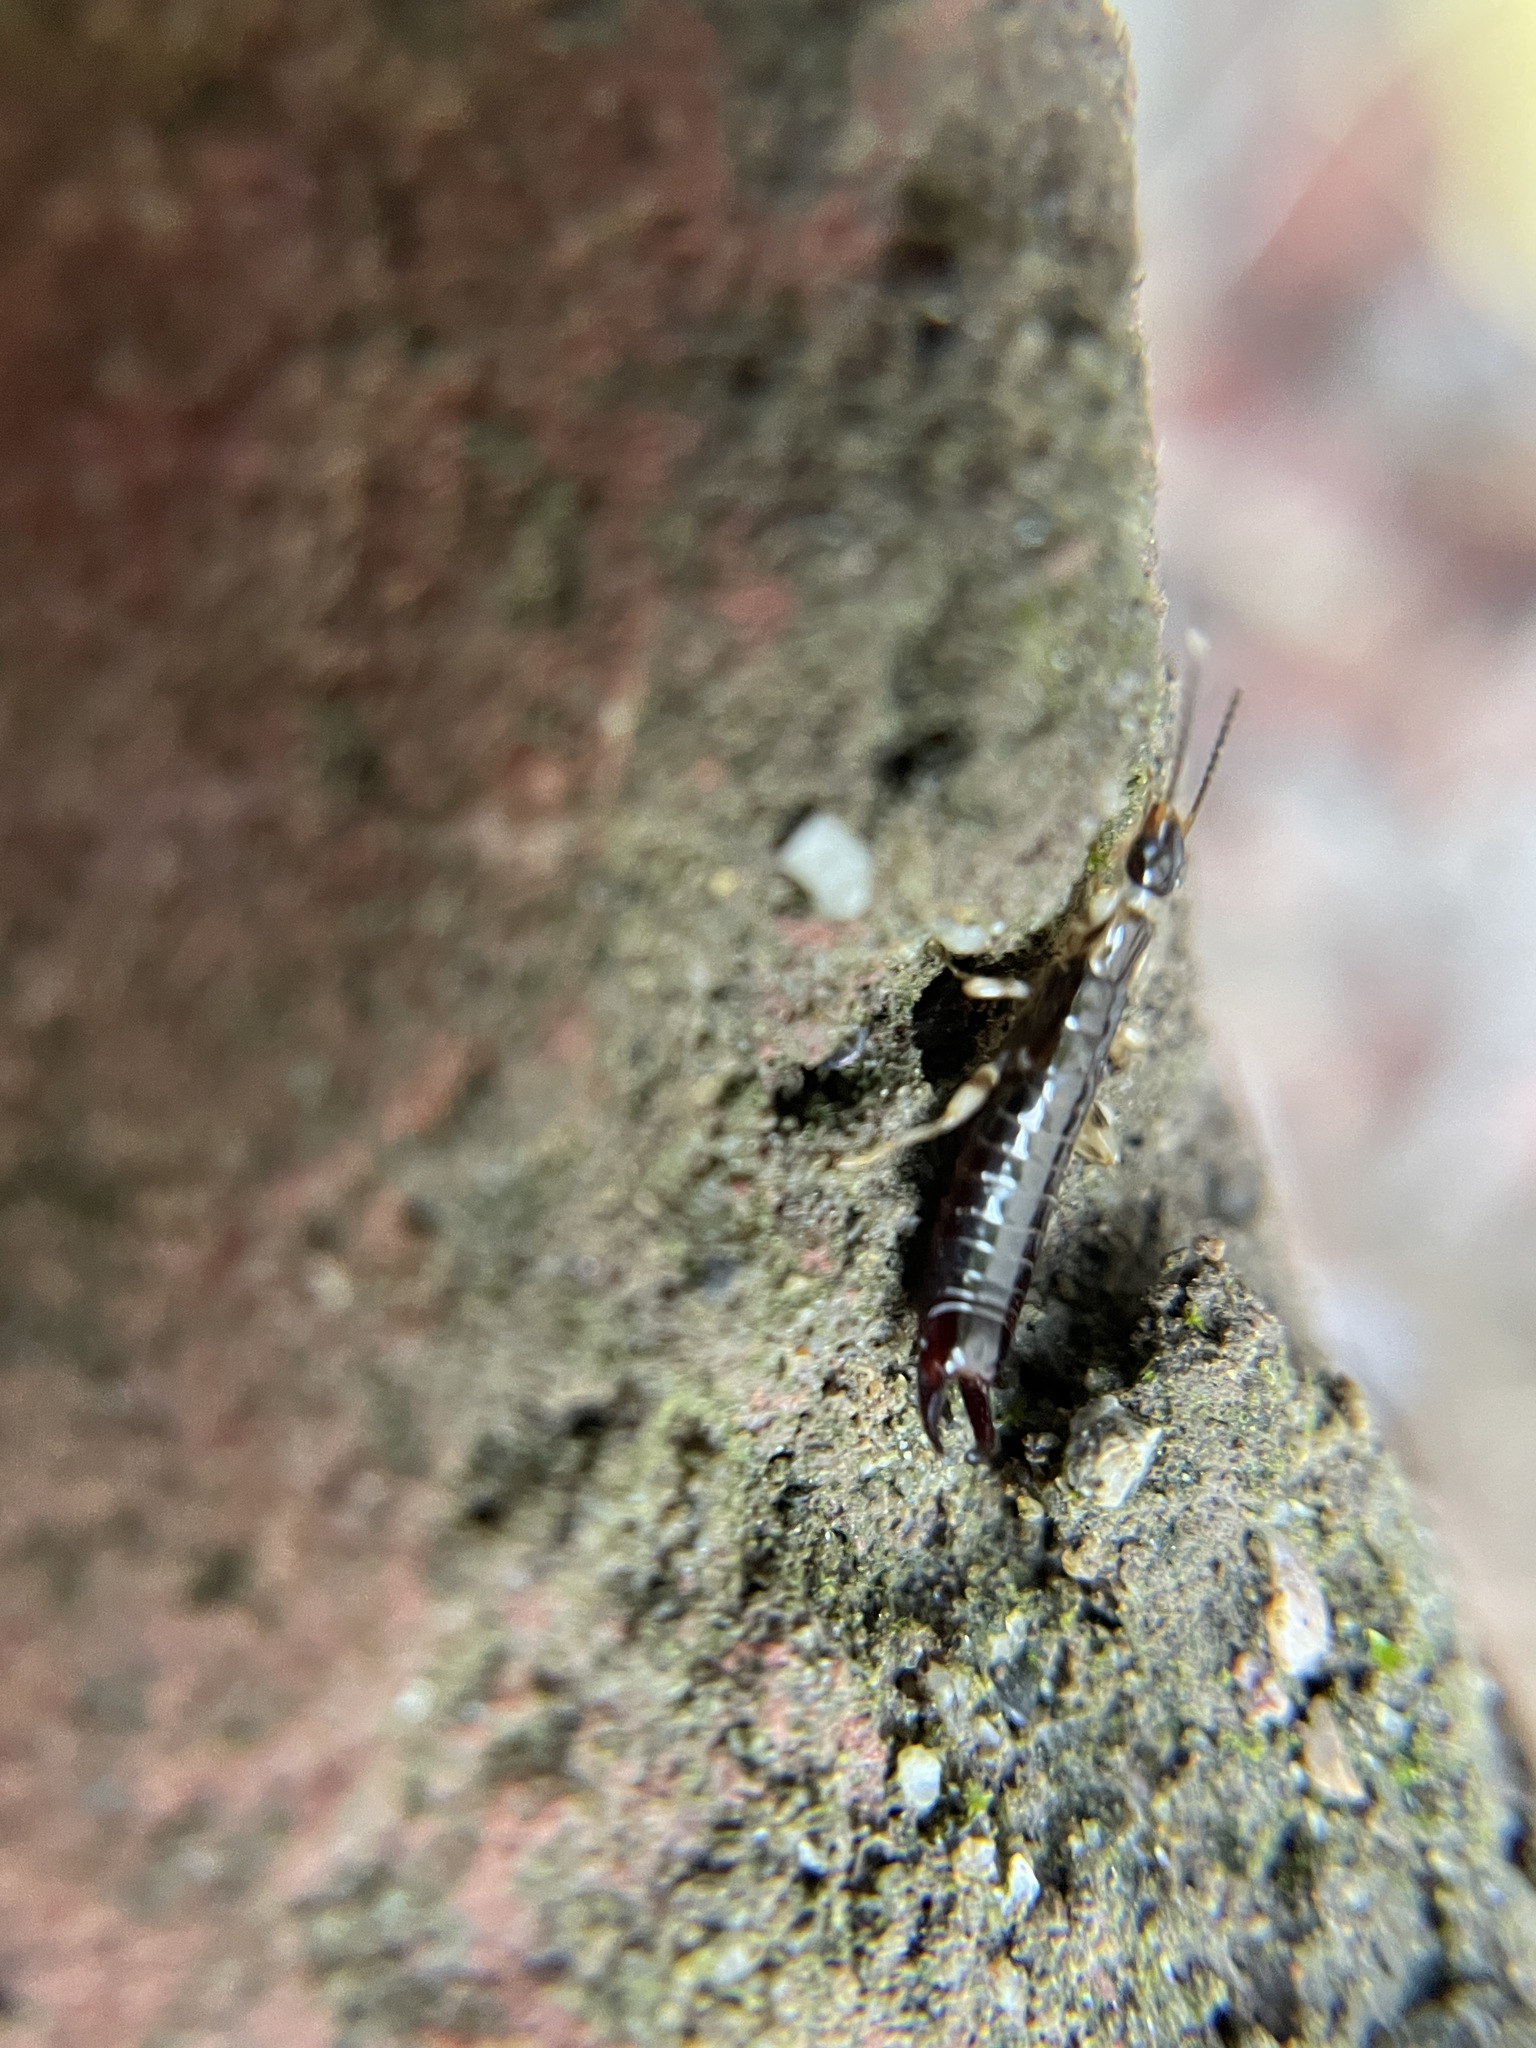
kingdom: Animalia
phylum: Arthropoda
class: Insecta
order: Dermaptera
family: Anisolabididae
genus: Euborellia
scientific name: Euborellia annulipes
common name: Ringlegged earwig
